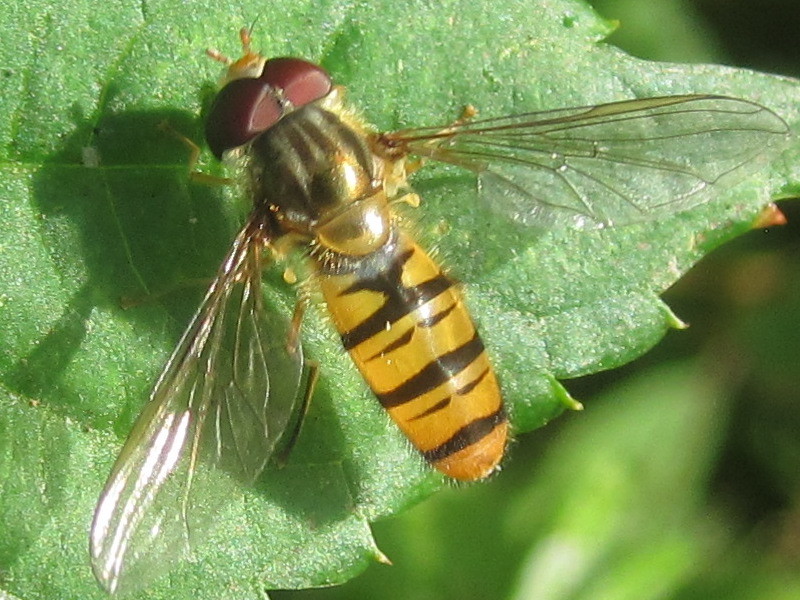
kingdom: Animalia
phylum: Arthropoda
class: Insecta
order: Diptera
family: Syrphidae
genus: Episyrphus
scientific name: Episyrphus balteatus
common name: Marmalade hoverfly
